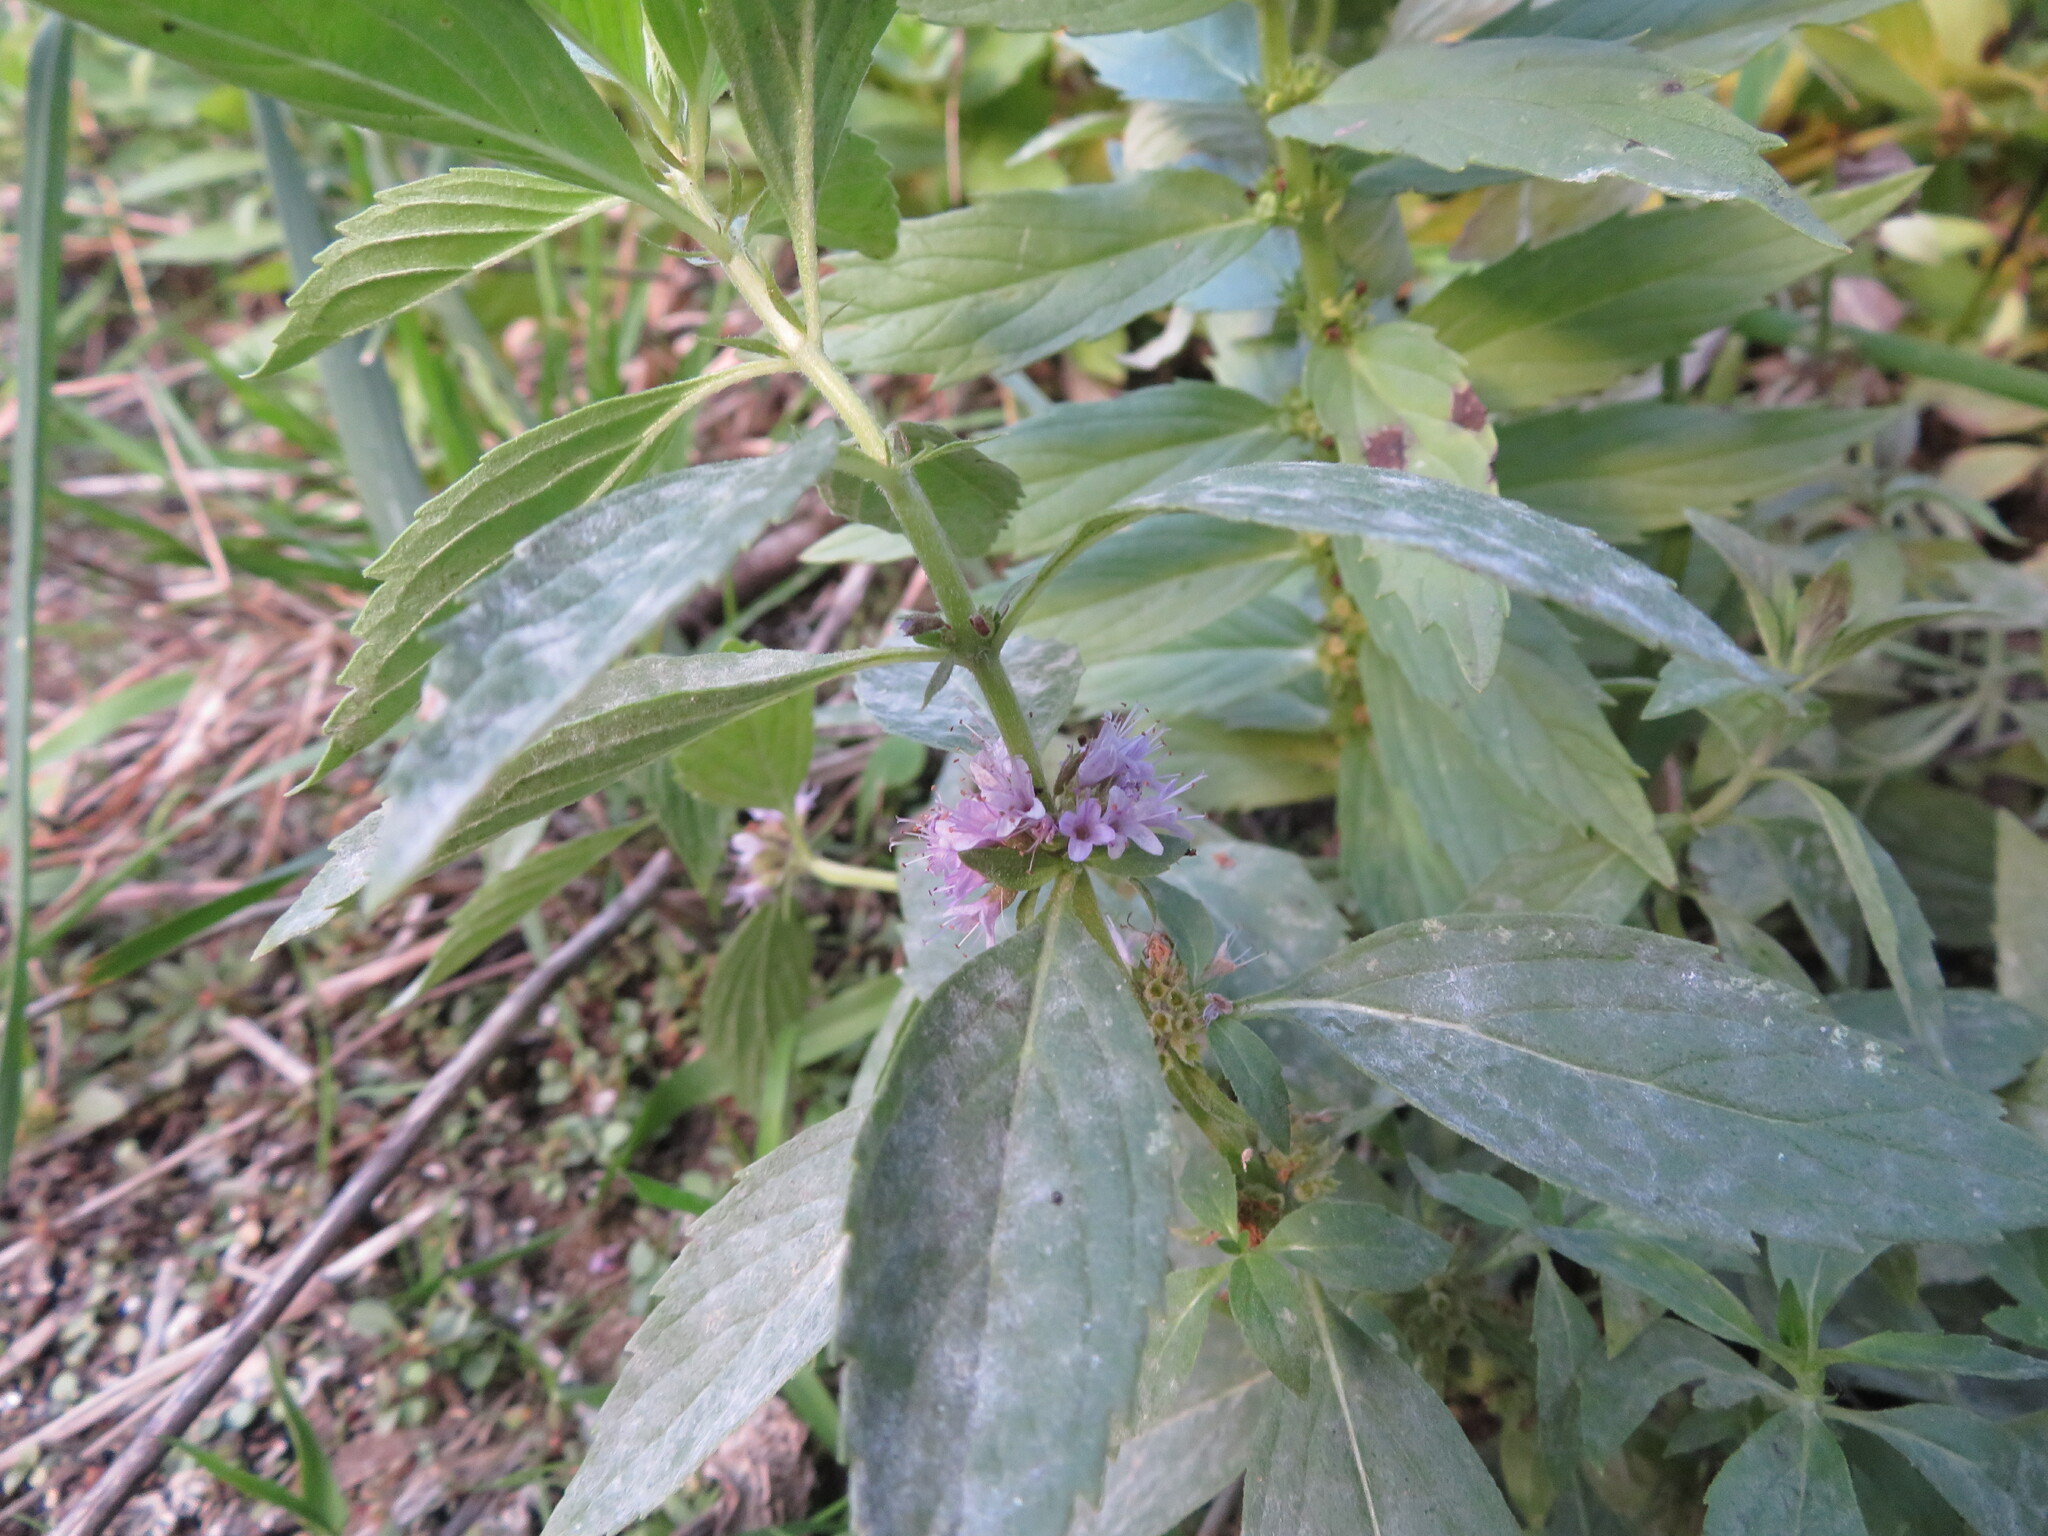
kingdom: Plantae
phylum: Tracheophyta
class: Magnoliopsida
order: Lamiales
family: Lamiaceae
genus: Mentha
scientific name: Mentha canadensis
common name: American corn mint
